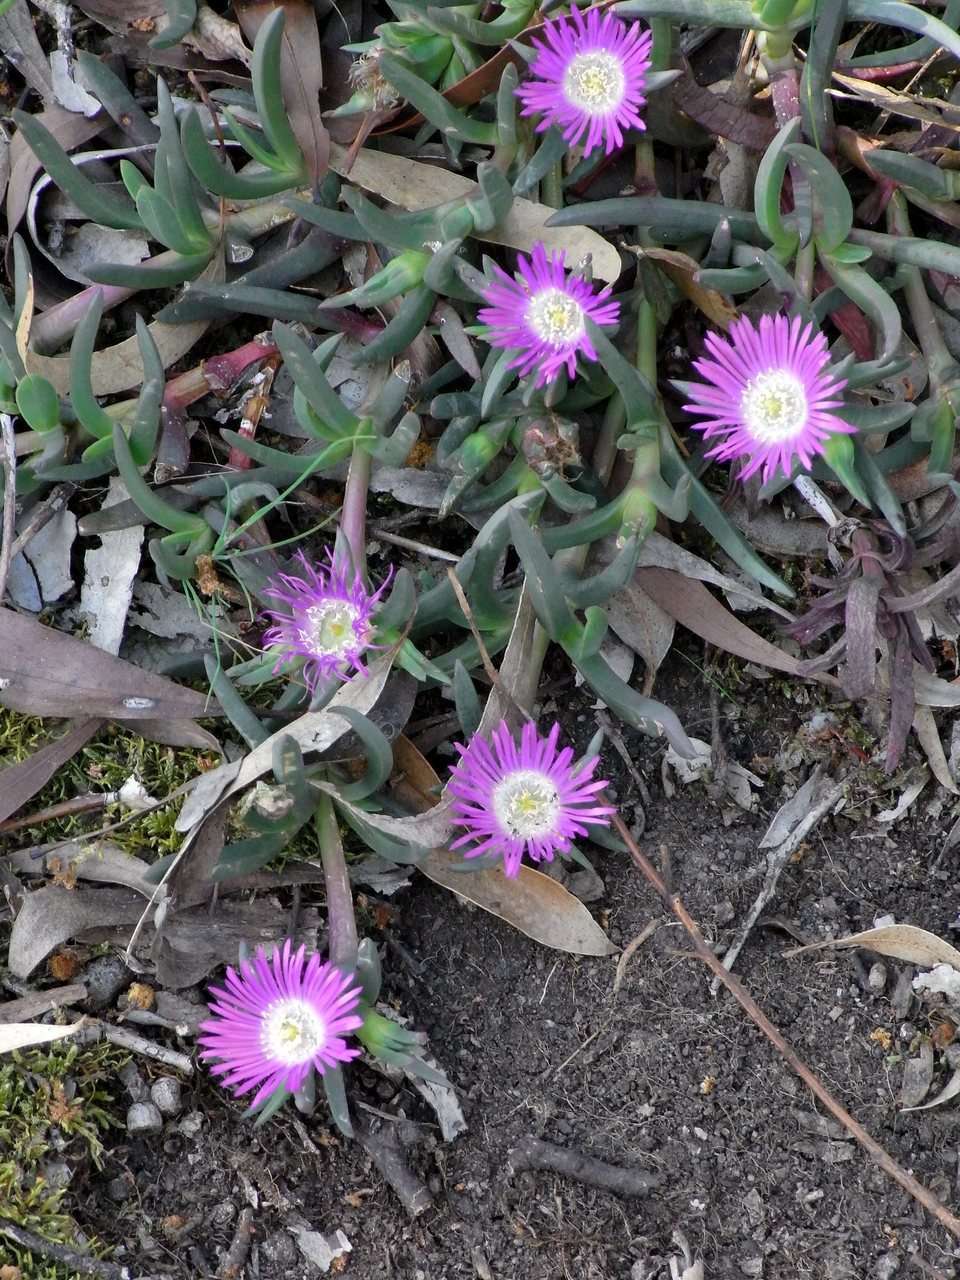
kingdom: Plantae
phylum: Tracheophyta
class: Magnoliopsida
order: Caryophyllales
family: Aizoaceae
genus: Carpobrotus
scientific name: Carpobrotus modestus
